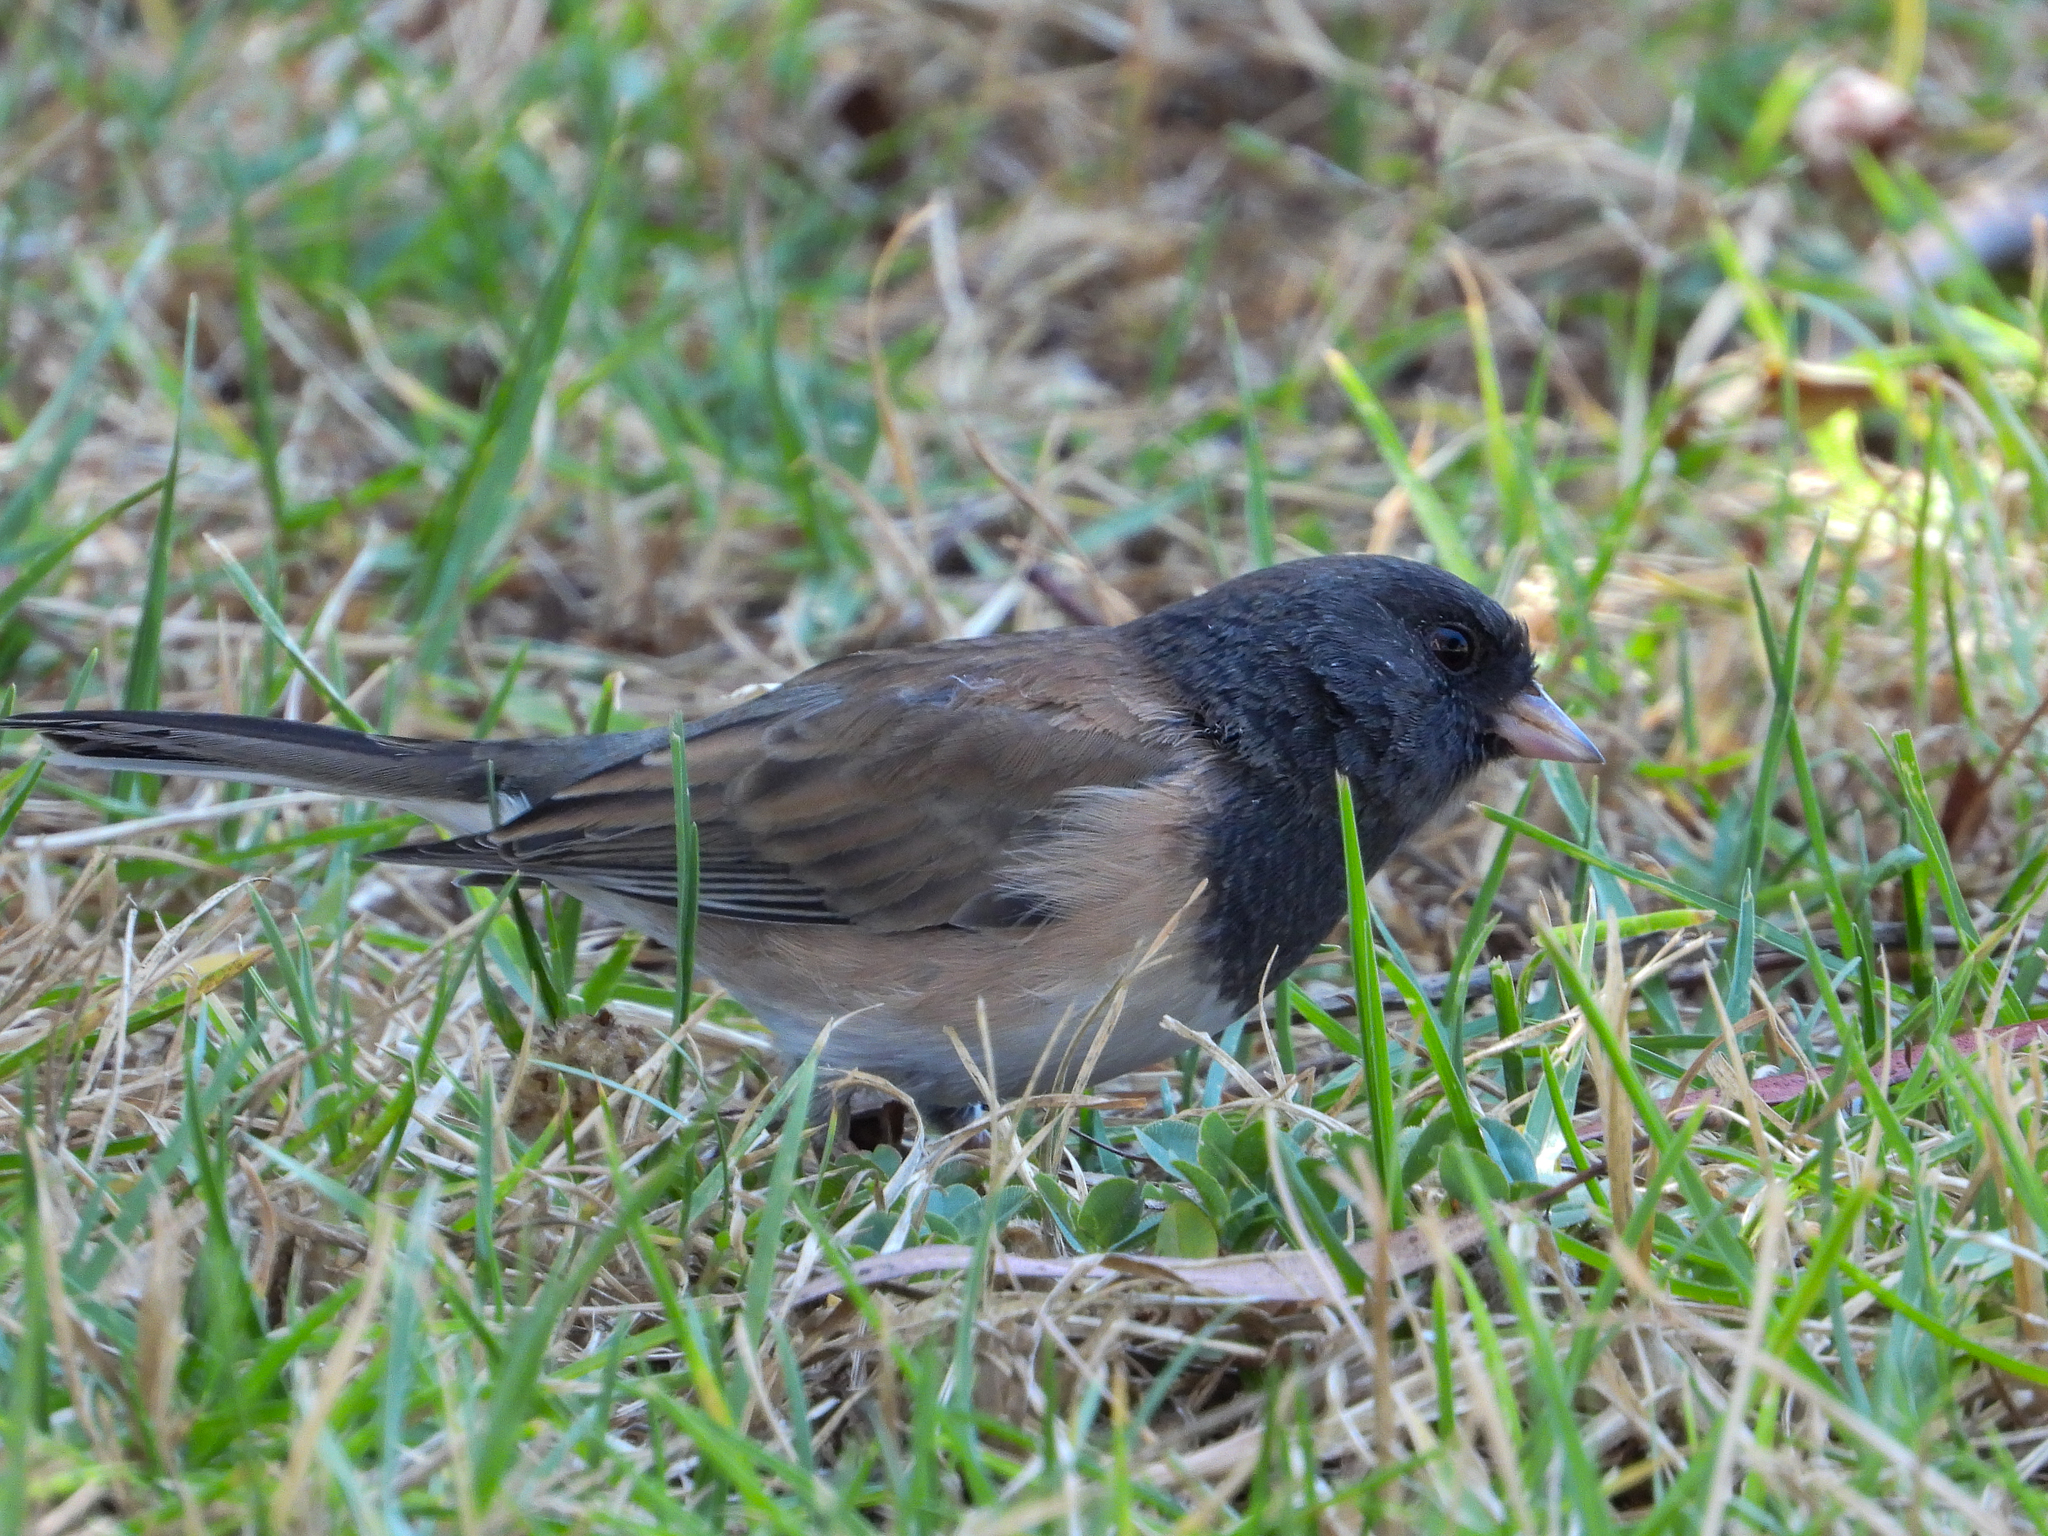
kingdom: Animalia
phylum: Chordata
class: Aves
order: Passeriformes
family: Passerellidae
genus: Junco
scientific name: Junco hyemalis
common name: Dark-eyed junco
